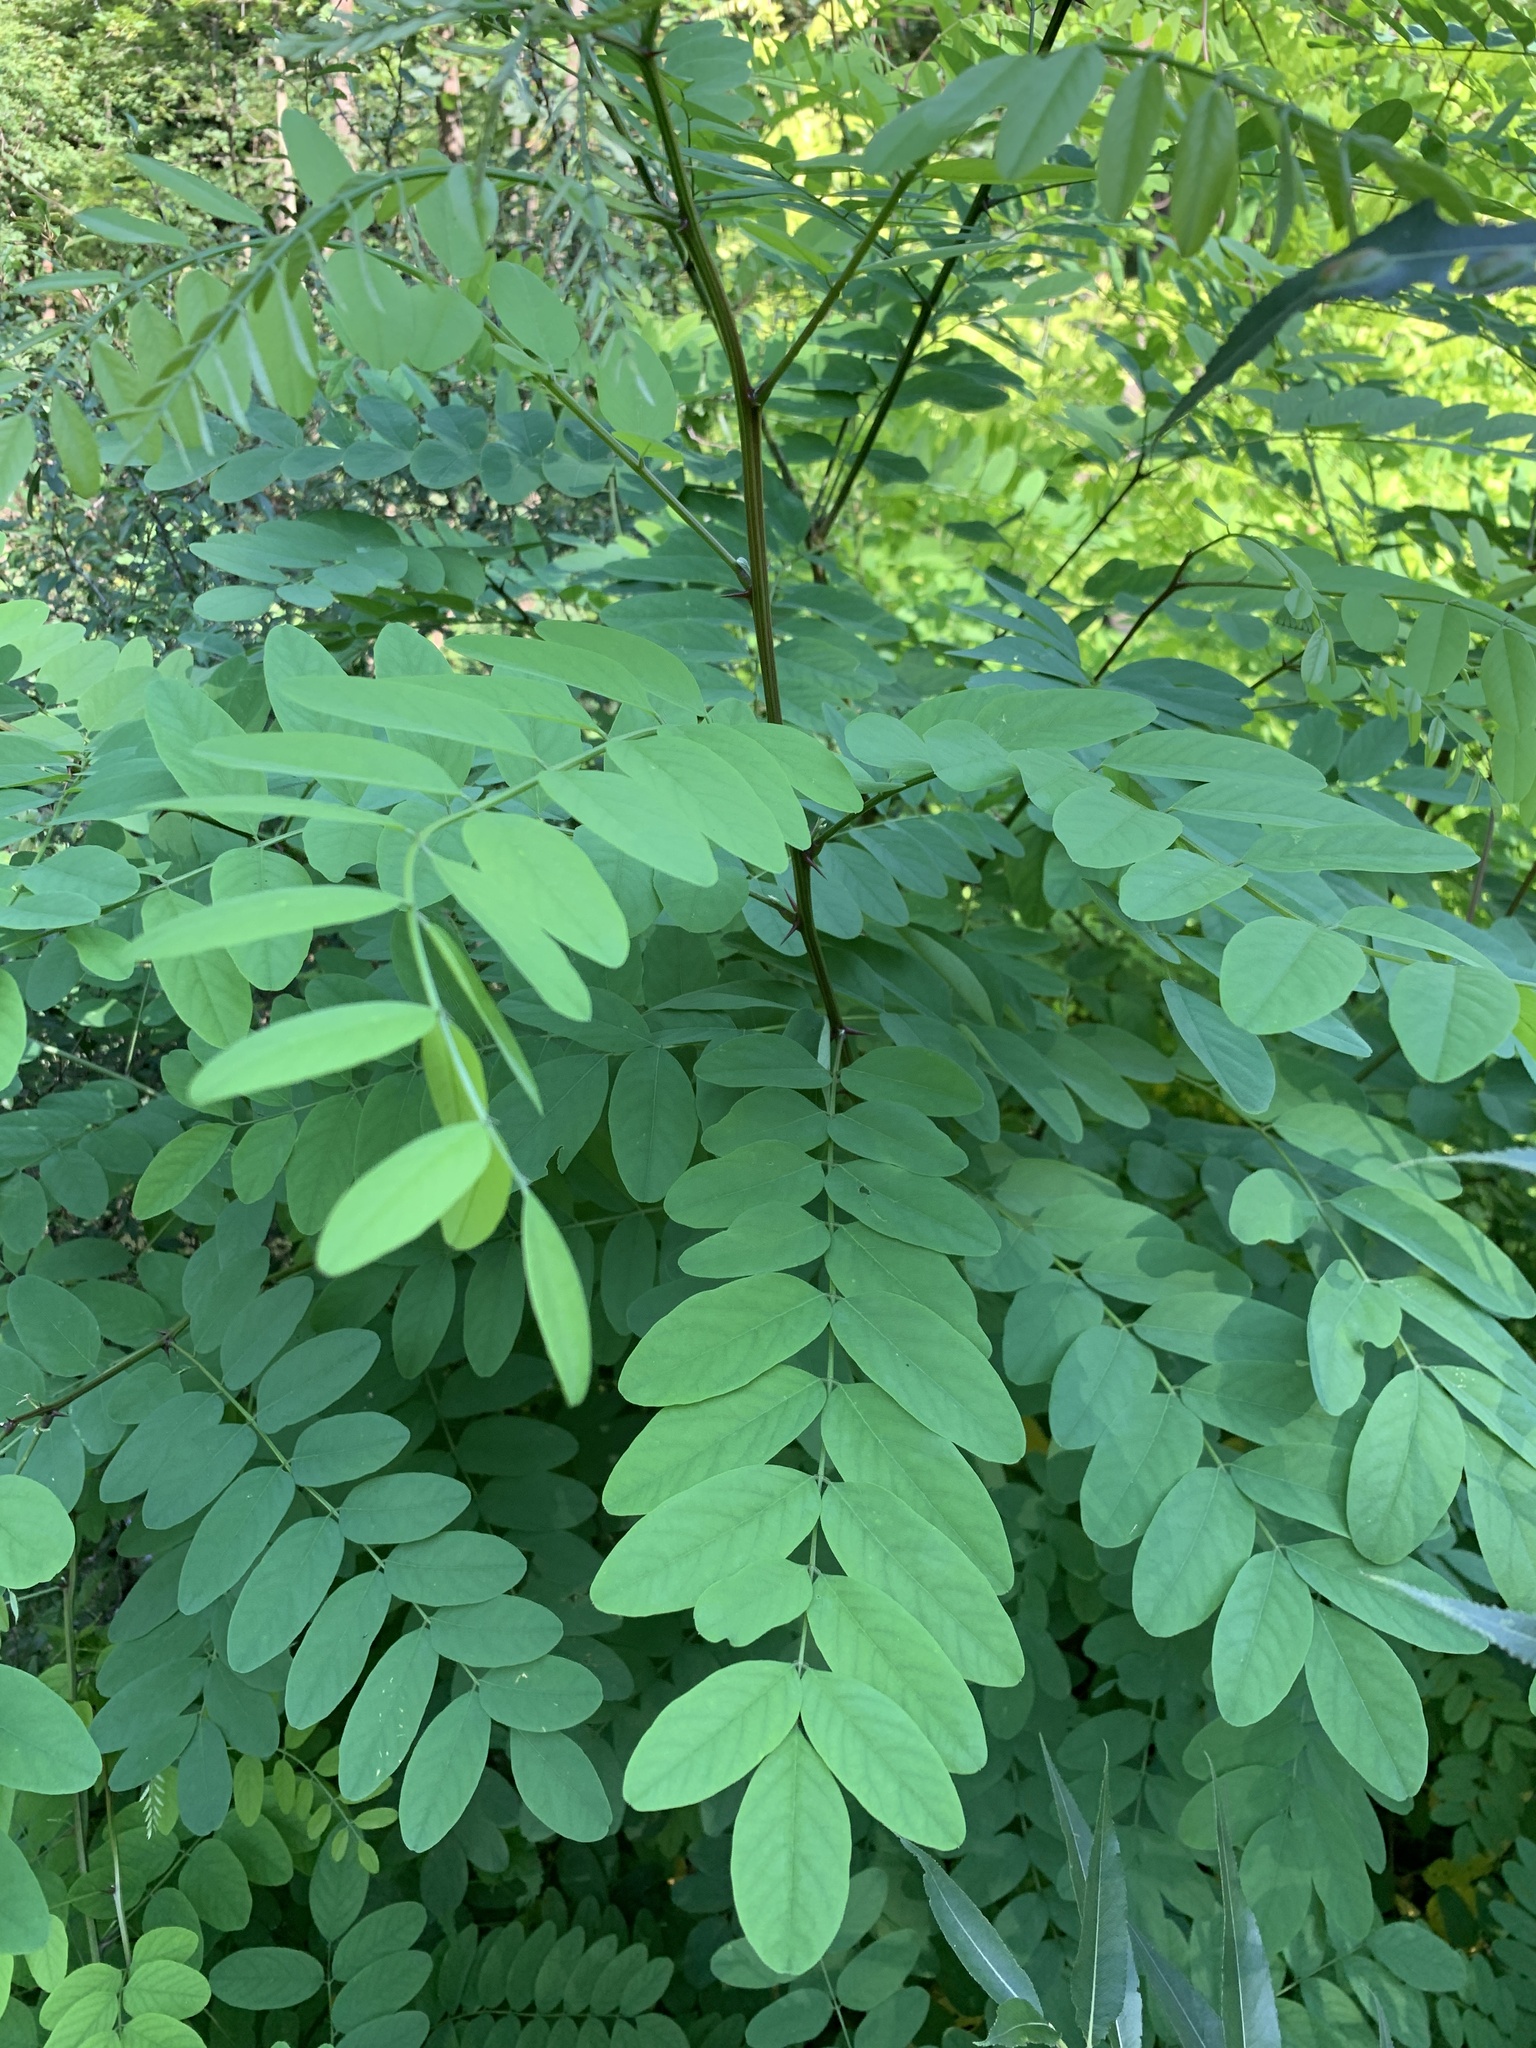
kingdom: Plantae
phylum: Tracheophyta
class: Magnoliopsida
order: Fabales
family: Fabaceae
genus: Robinia
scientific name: Robinia pseudoacacia
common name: Black locust
